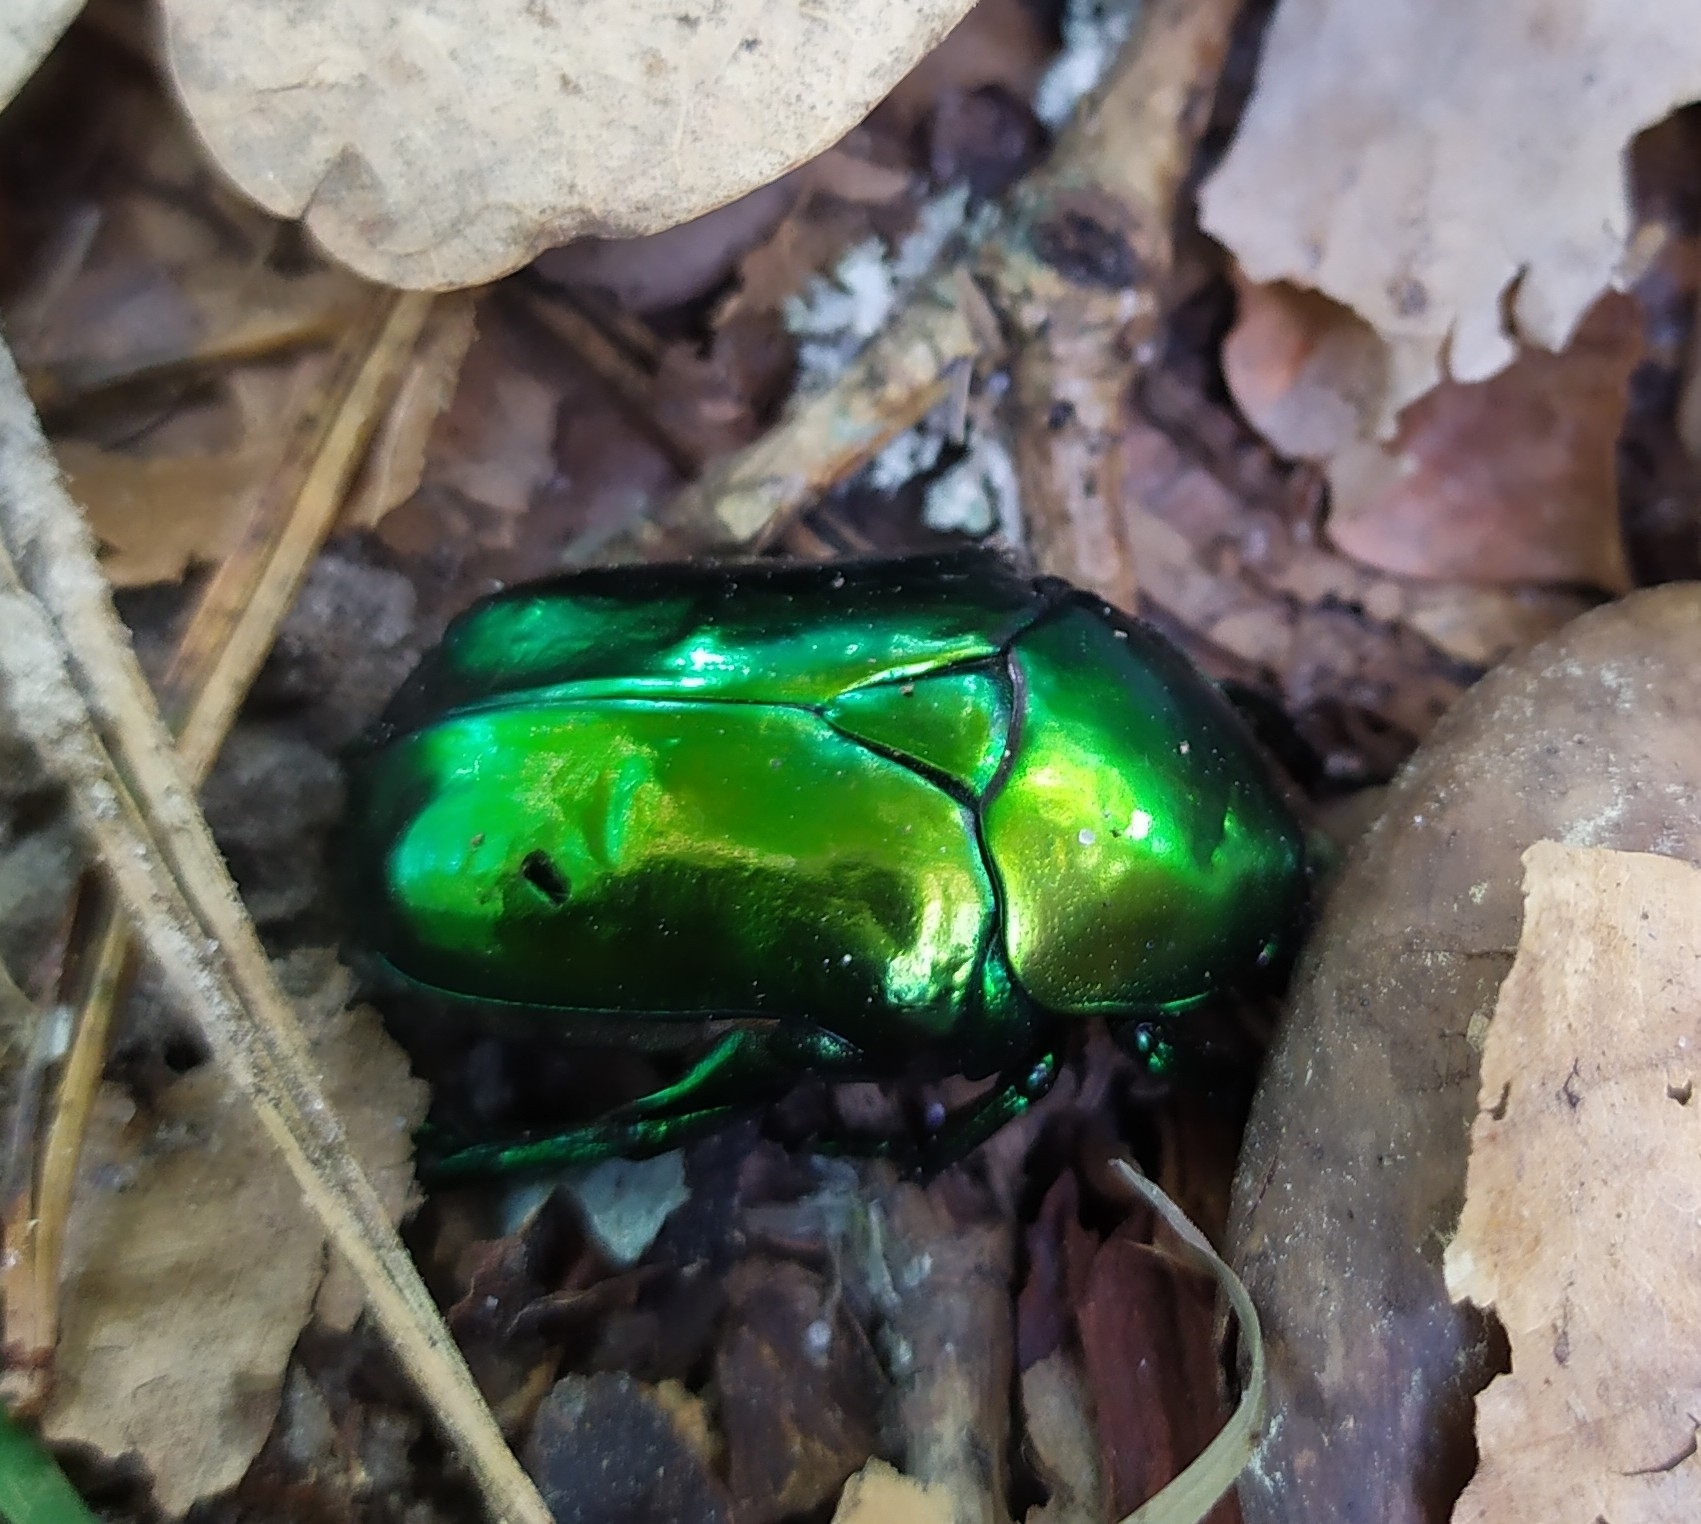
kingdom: Animalia
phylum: Arthropoda
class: Insecta
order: Coleoptera
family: Scarabaeidae
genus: Protaetia
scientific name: Protaetia speciosissima
